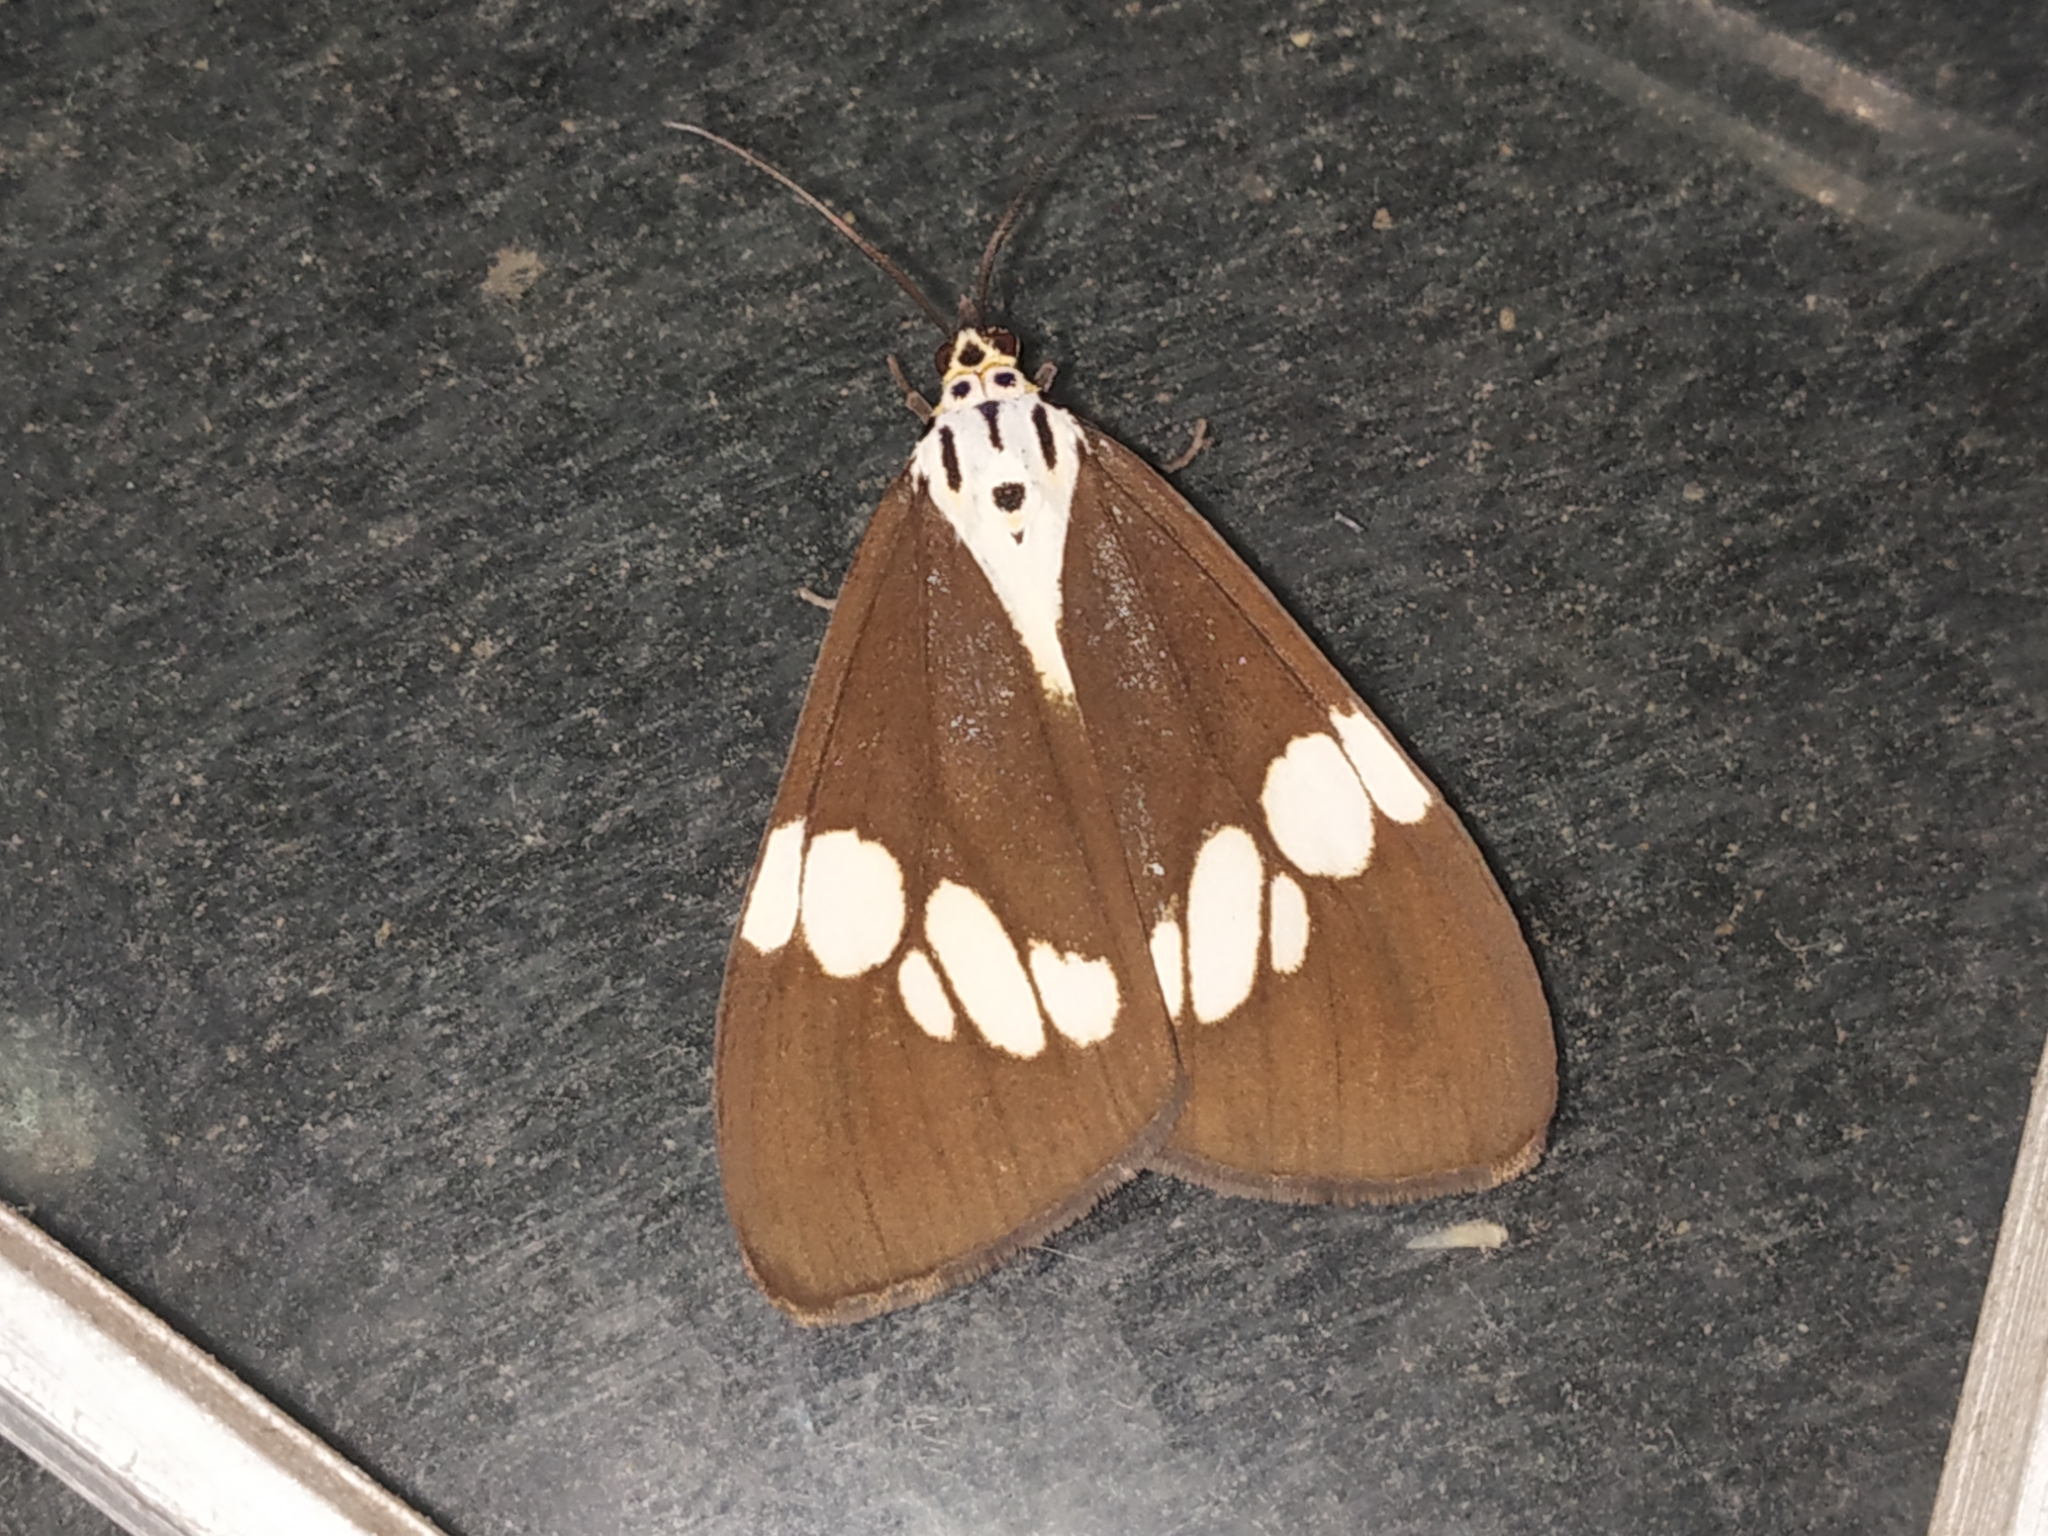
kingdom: Animalia
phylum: Arthropoda
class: Insecta
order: Lepidoptera
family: Erebidae
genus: Nyctemera
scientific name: Nyctemera lacticinia
